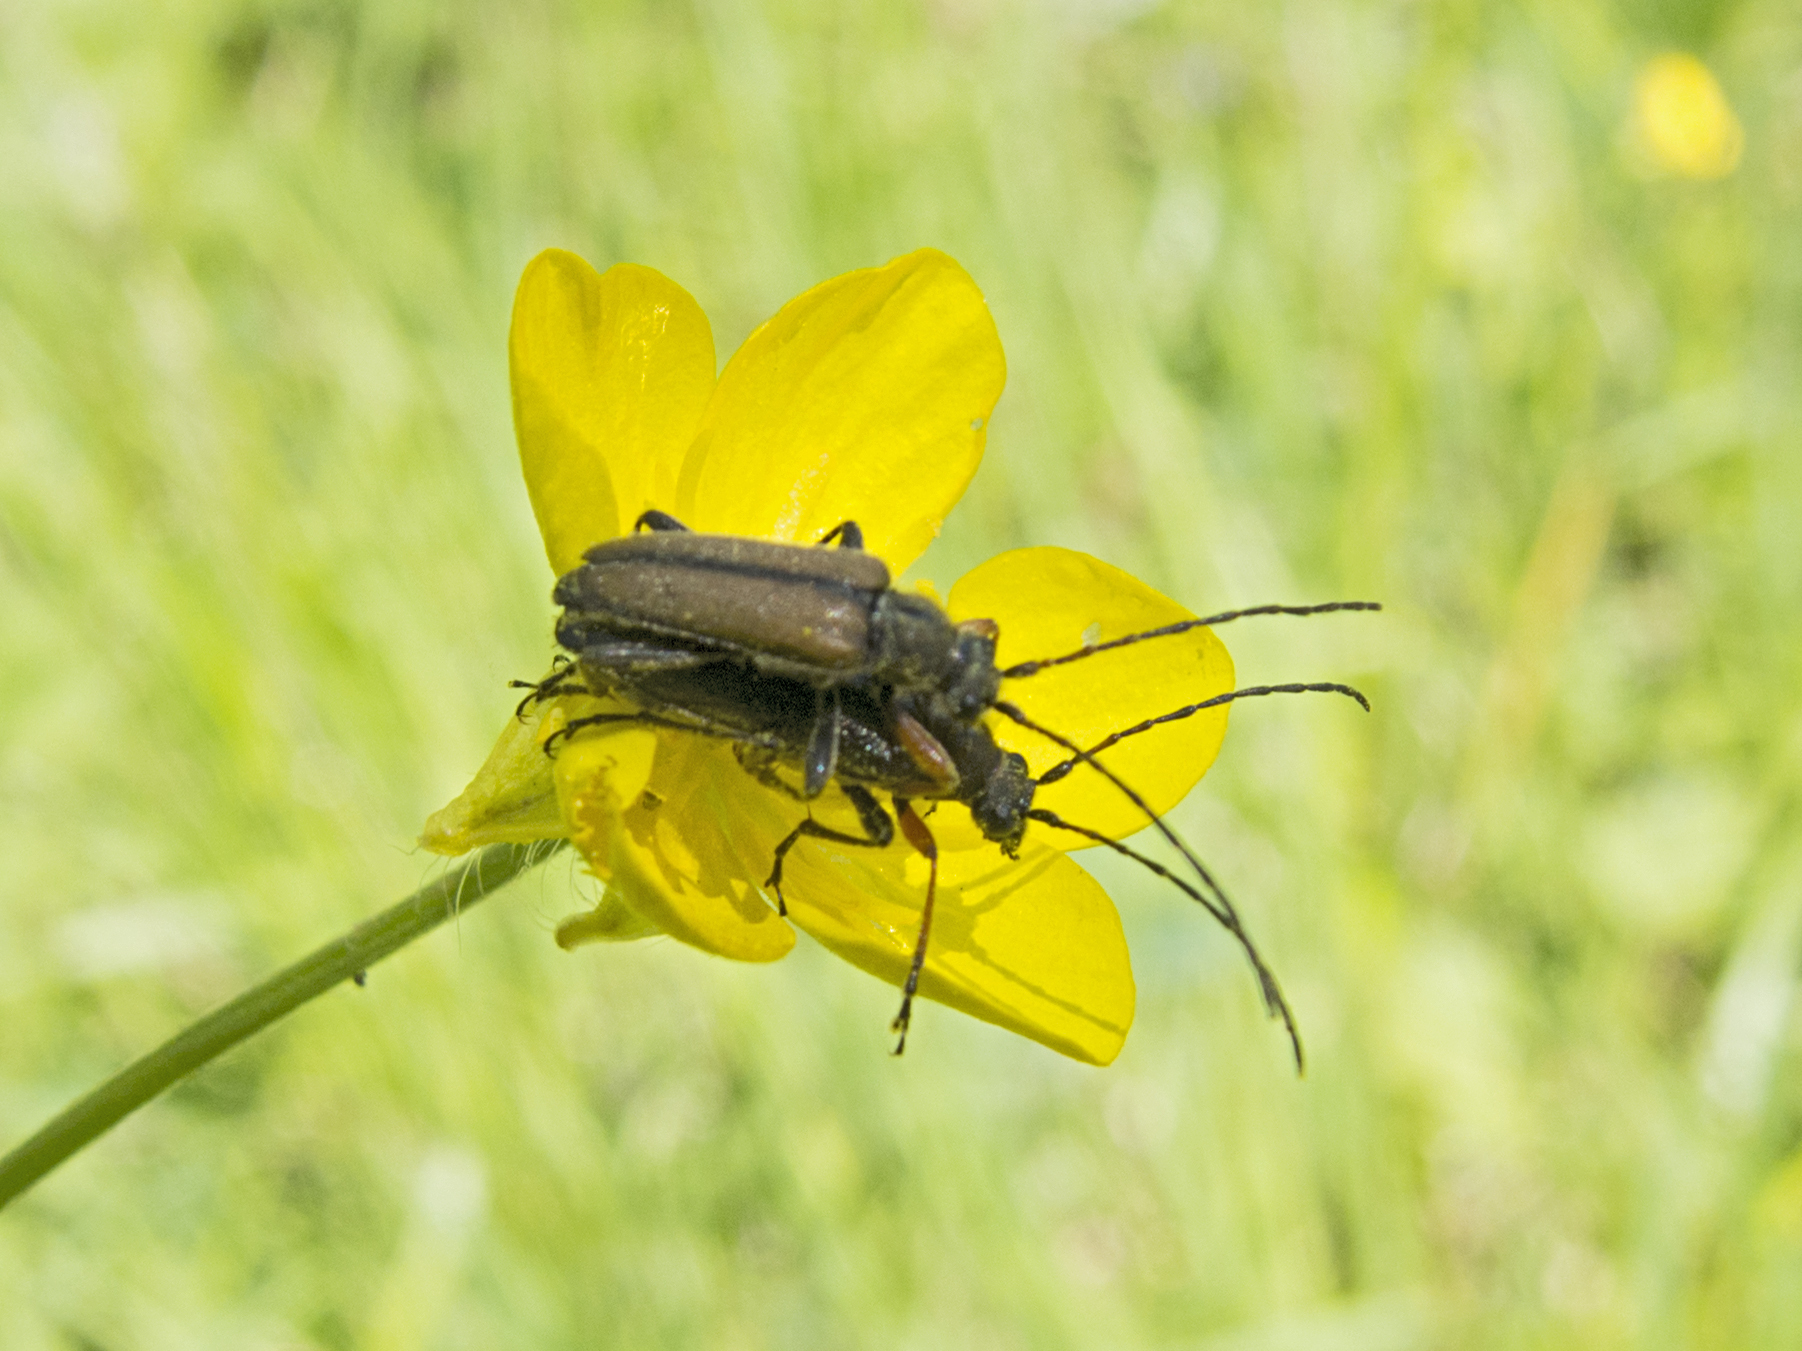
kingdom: Animalia
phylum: Arthropoda
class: Insecta
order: Coleoptera
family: Cerambycidae
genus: Cortodera
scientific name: Cortodera flavimana
